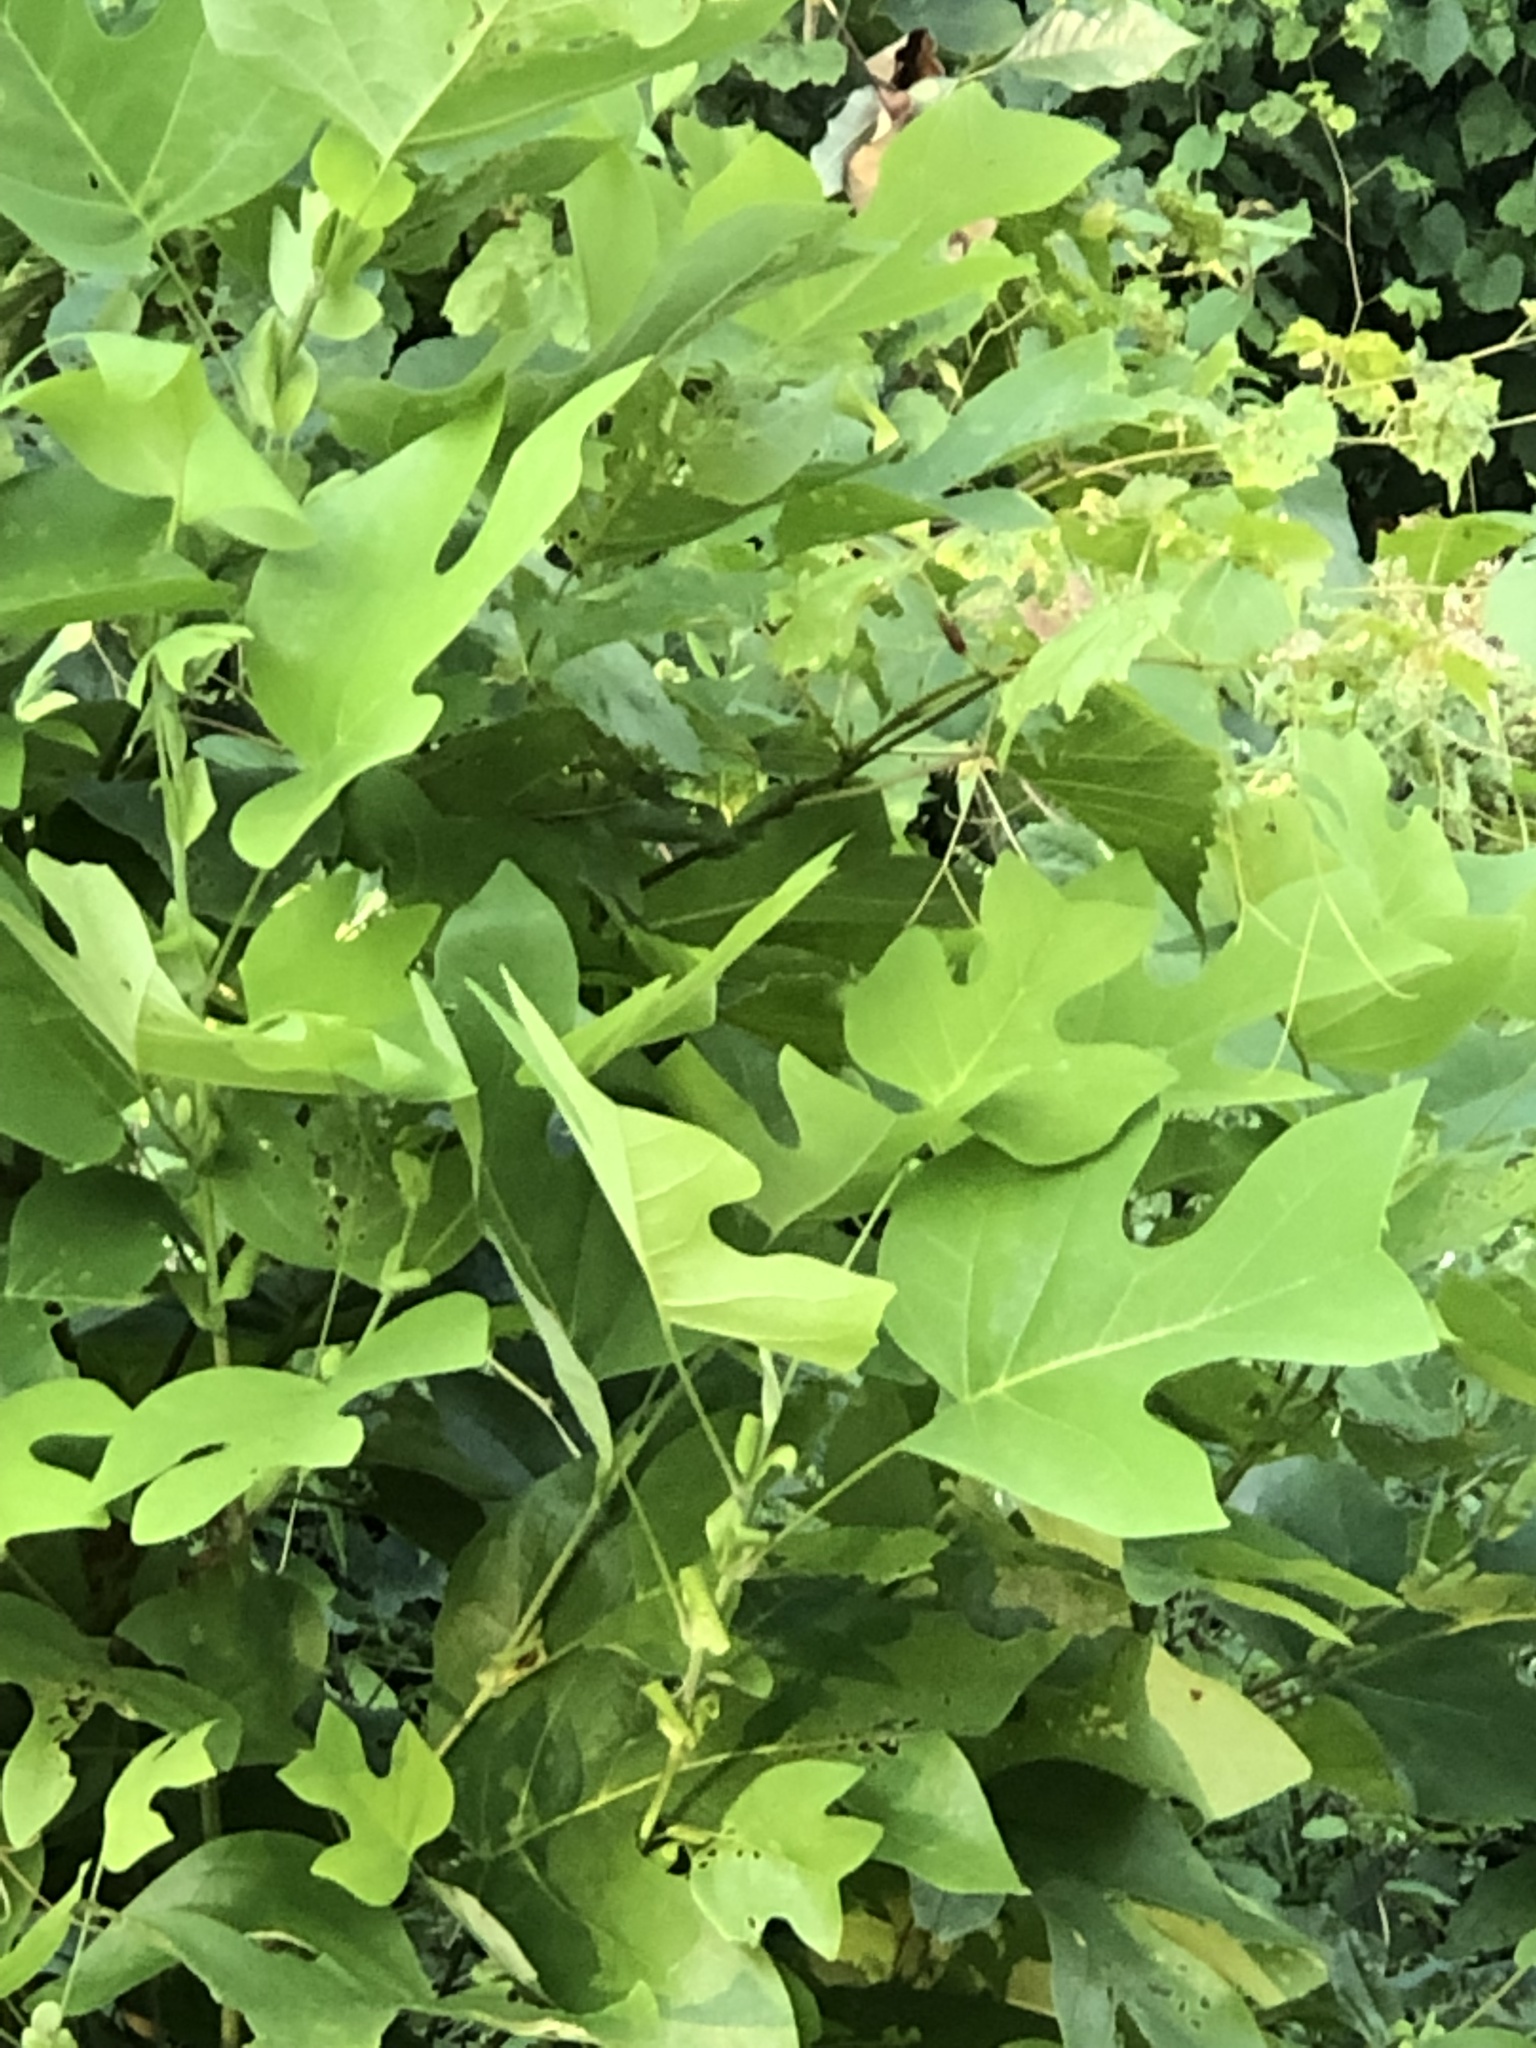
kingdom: Plantae
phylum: Tracheophyta
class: Magnoliopsida
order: Magnoliales
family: Magnoliaceae
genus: Liriodendron
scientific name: Liriodendron tulipifera
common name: Tulip tree
